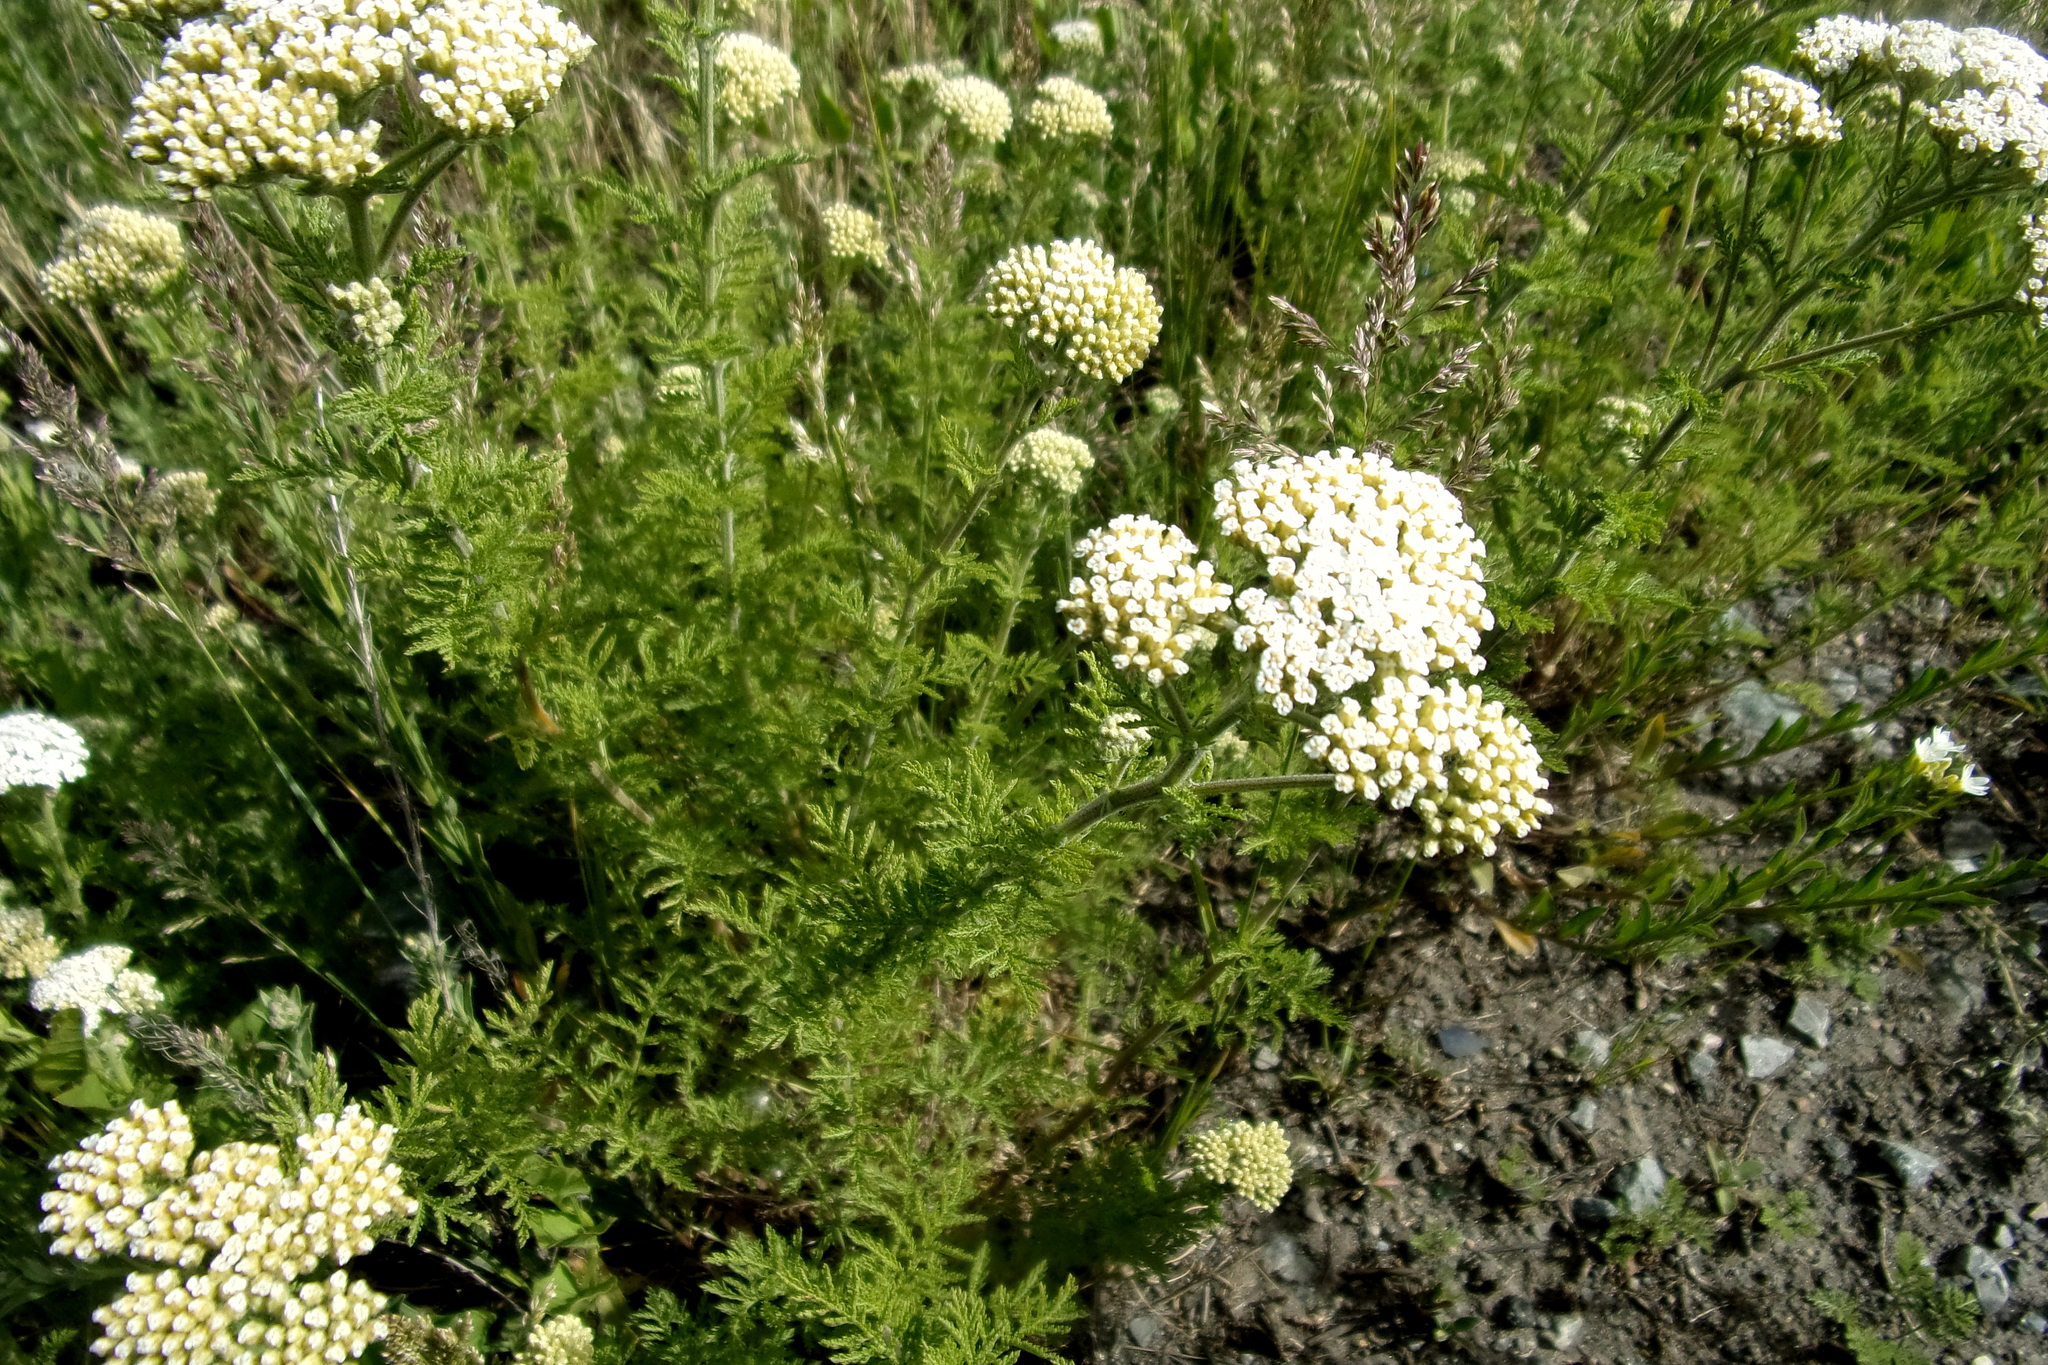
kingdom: Plantae
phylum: Tracheophyta
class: Magnoliopsida
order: Asterales
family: Asteraceae
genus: Achillea
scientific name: Achillea nobilis
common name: Noble yarrow
